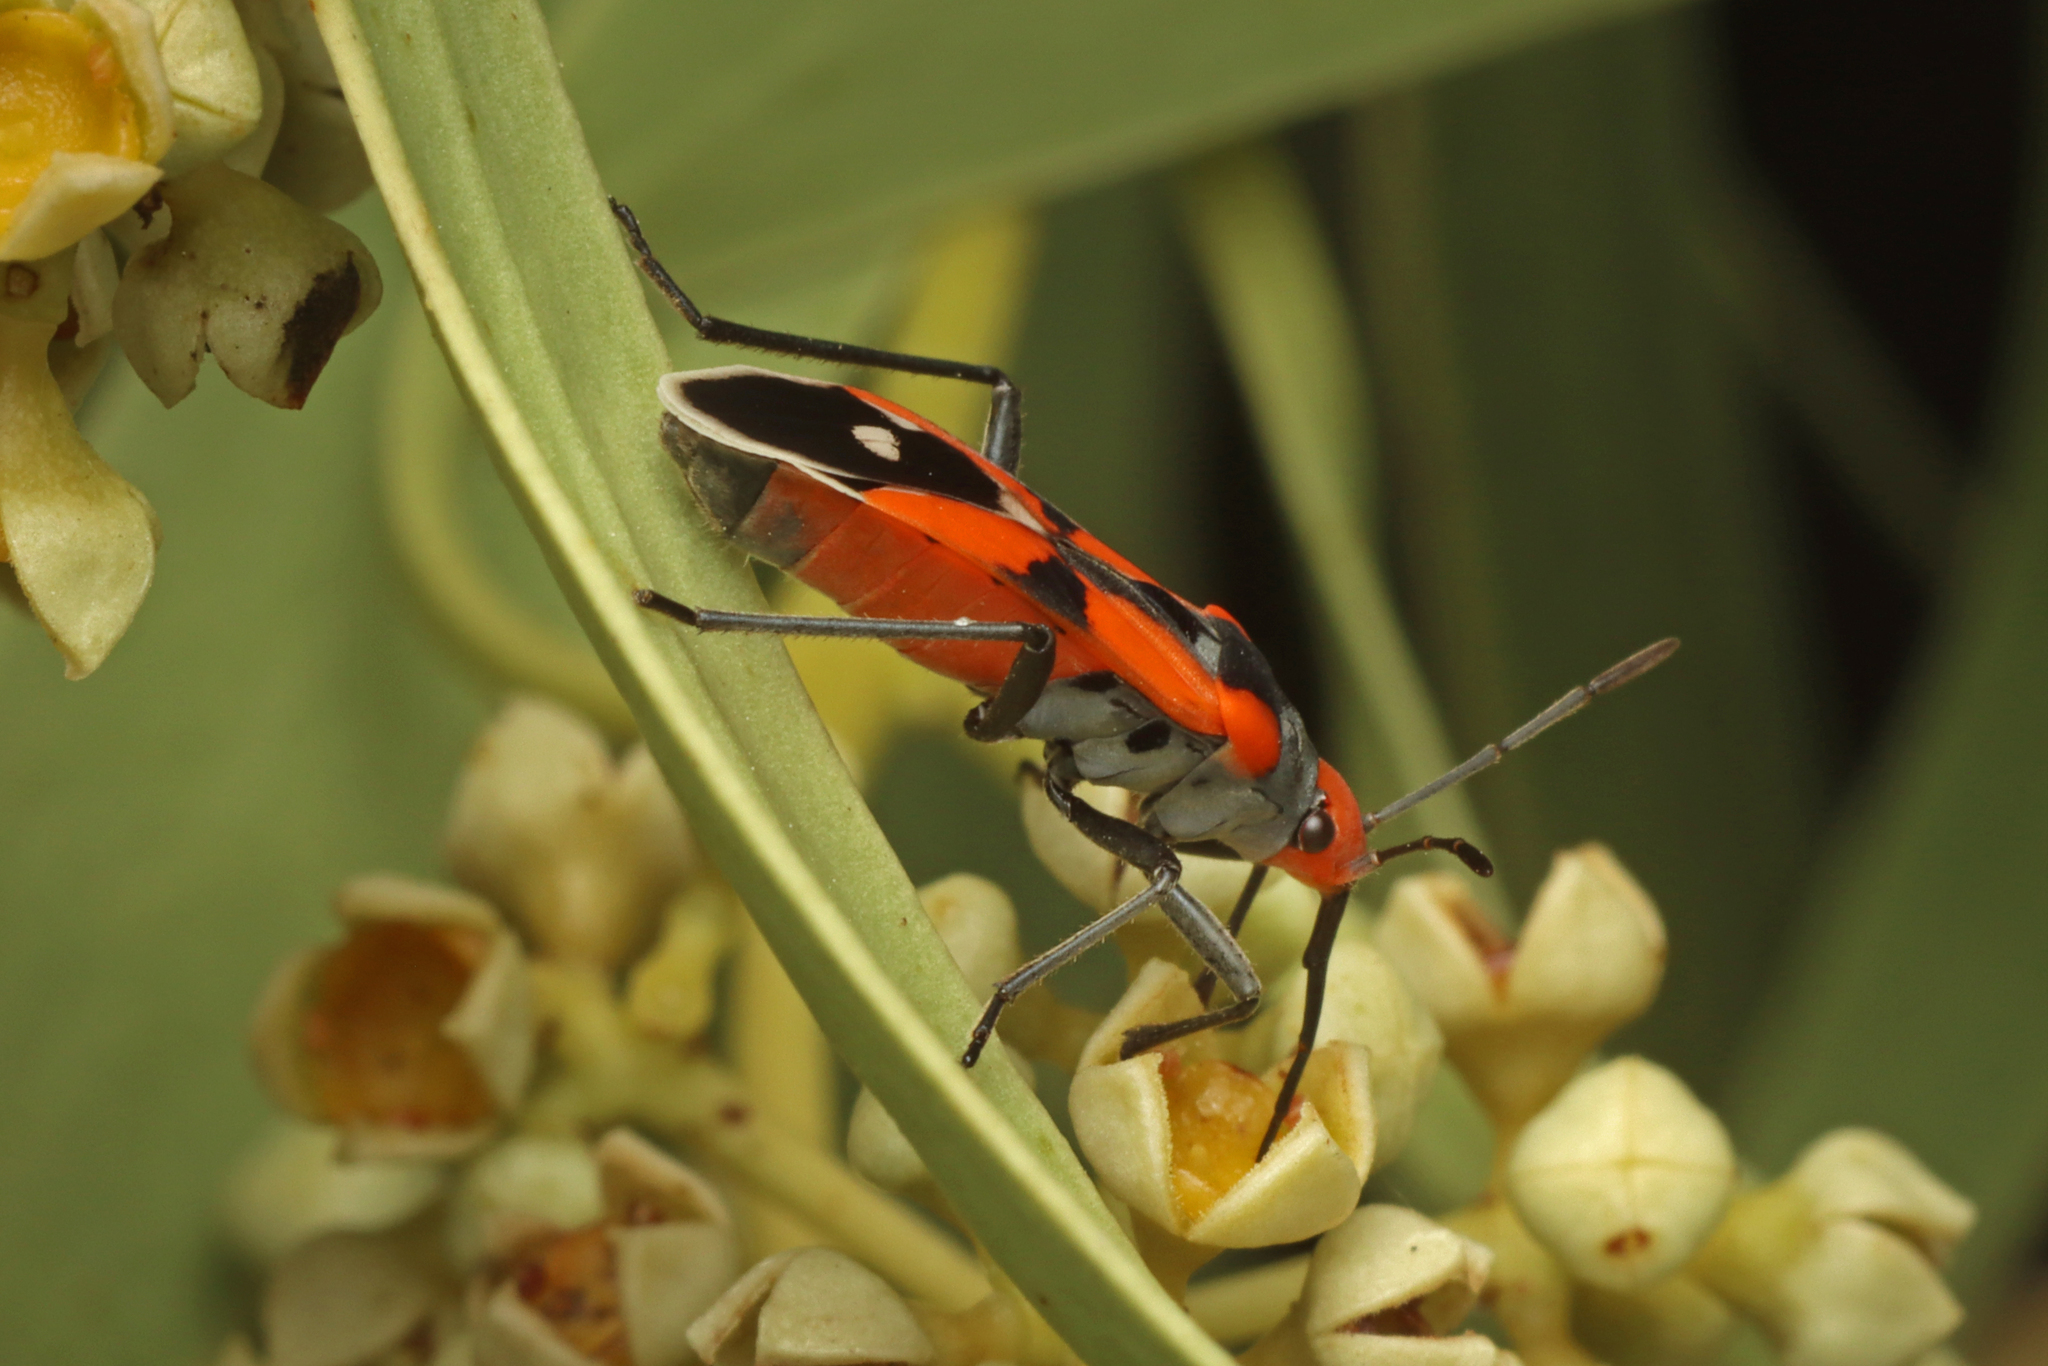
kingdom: Animalia
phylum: Arthropoda
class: Insecta
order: Hemiptera
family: Lygaeidae
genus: Melanerythrus
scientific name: Melanerythrus mactans
